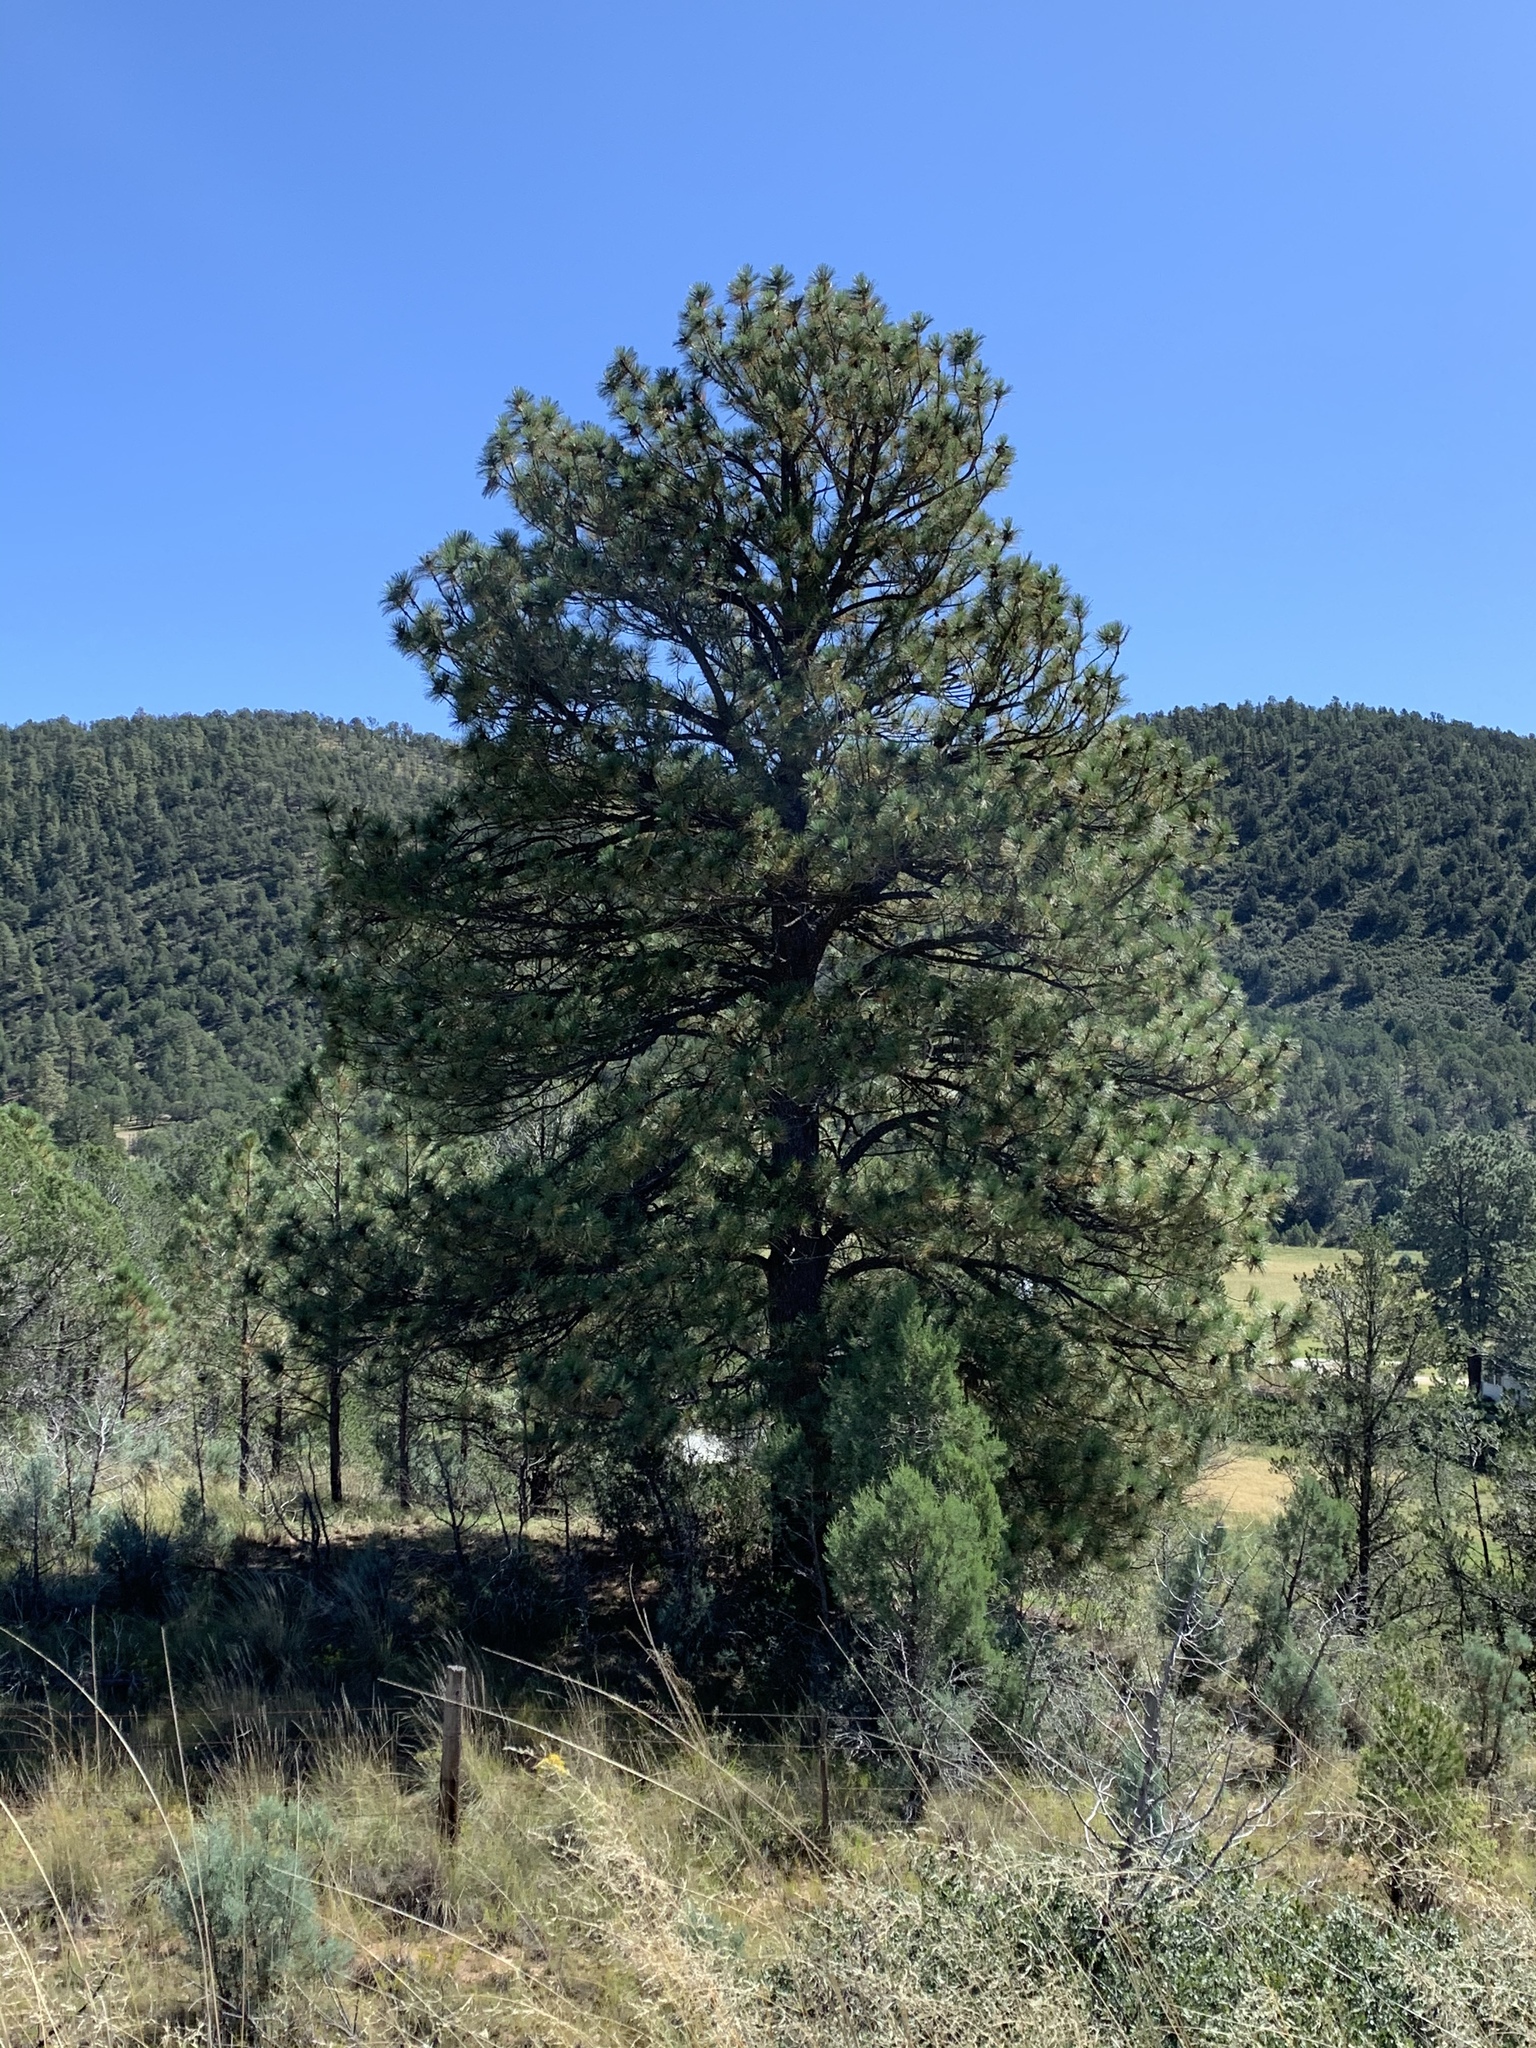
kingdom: Plantae
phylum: Tracheophyta
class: Pinopsida
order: Pinales
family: Pinaceae
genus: Pinus
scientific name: Pinus ponderosa
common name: Western yellow-pine
